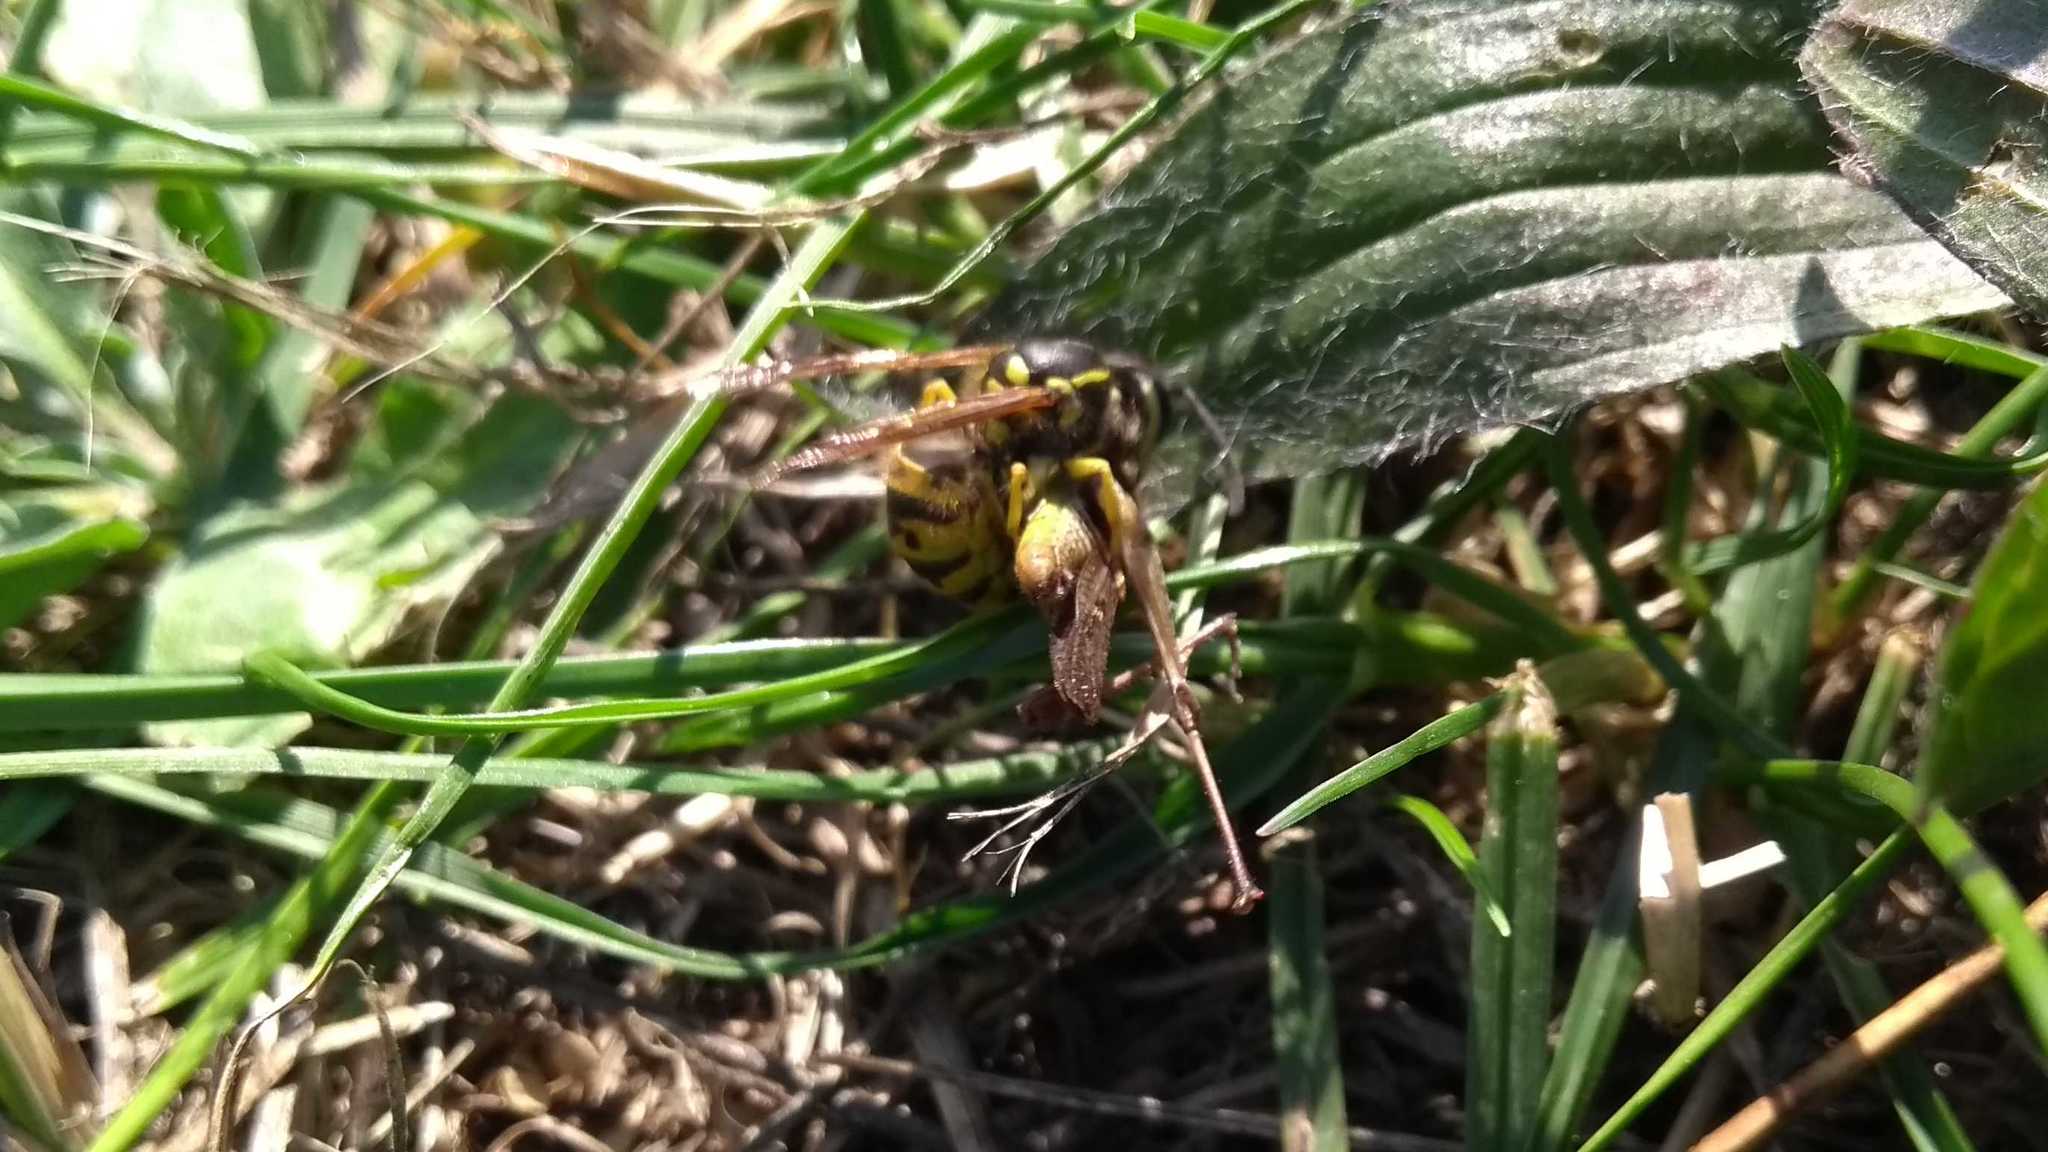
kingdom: Animalia
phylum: Arthropoda
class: Insecta
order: Hymenoptera
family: Vespidae
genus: Vespula
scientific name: Vespula germanica
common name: German wasp
